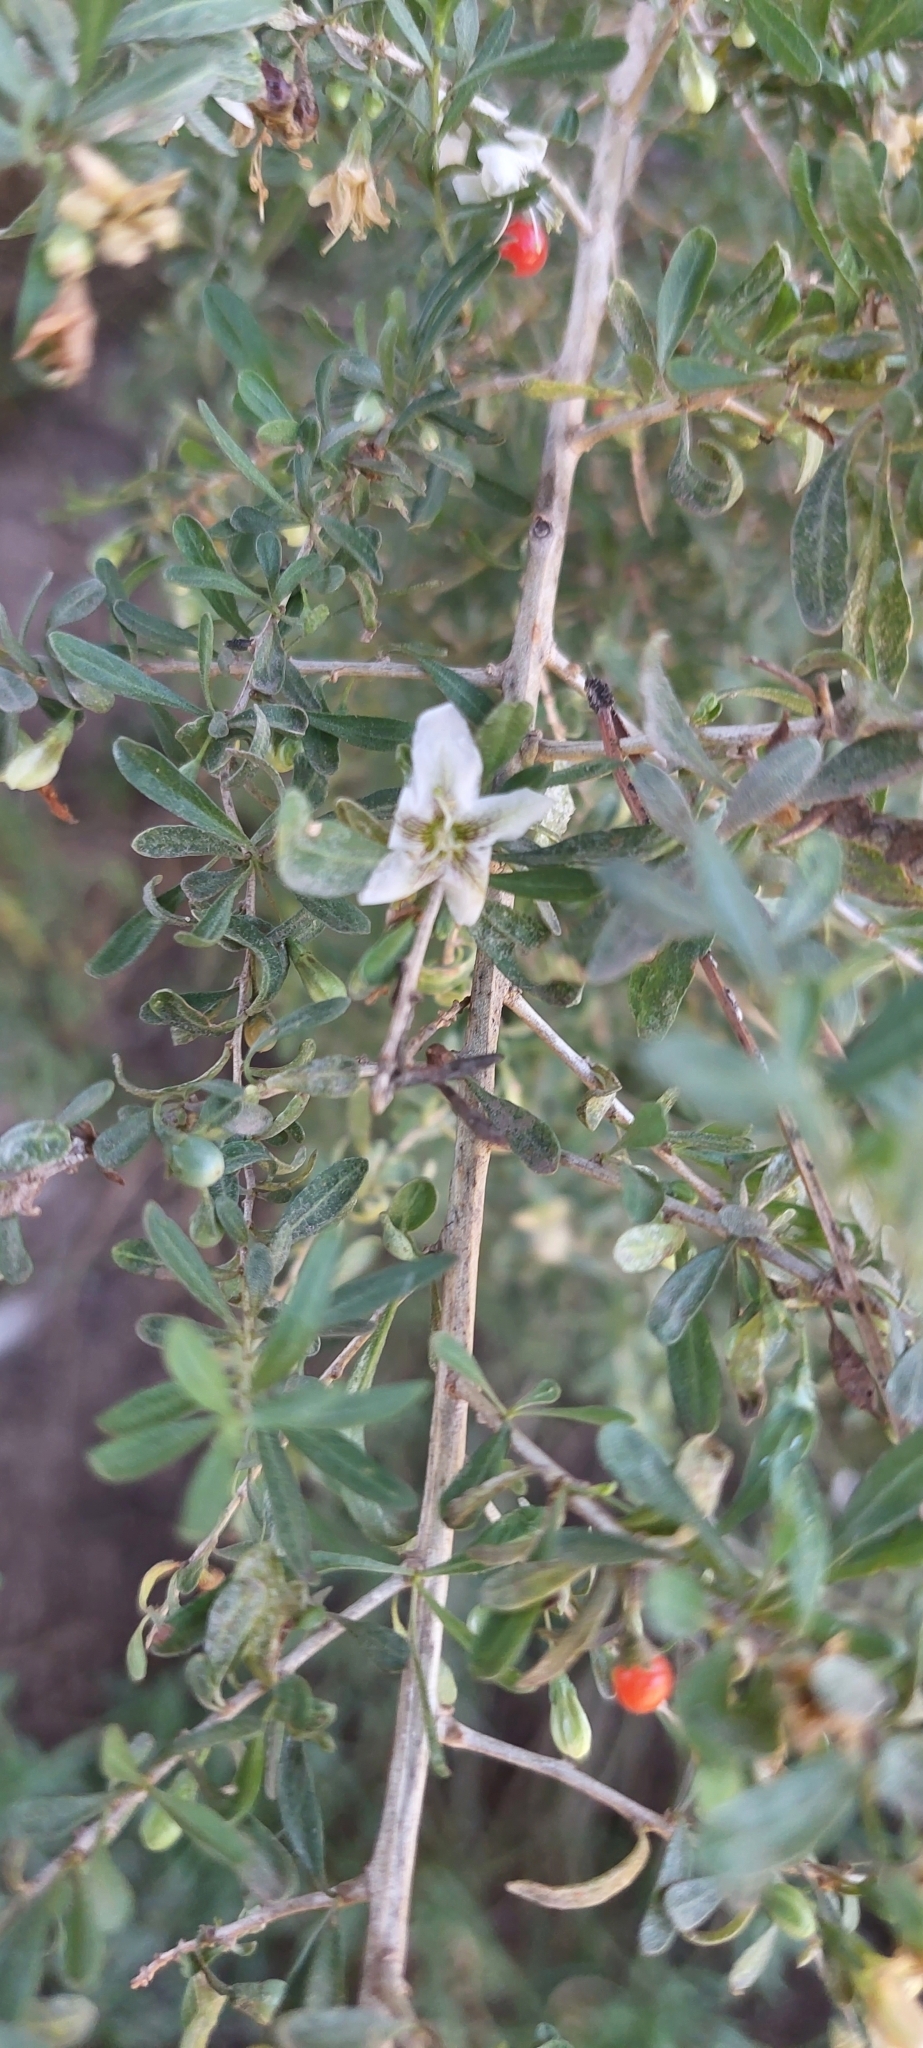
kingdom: Plantae
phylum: Tracheophyta
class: Magnoliopsida
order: Solanales
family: Solanaceae
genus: Lycium
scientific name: Lycium chilense
